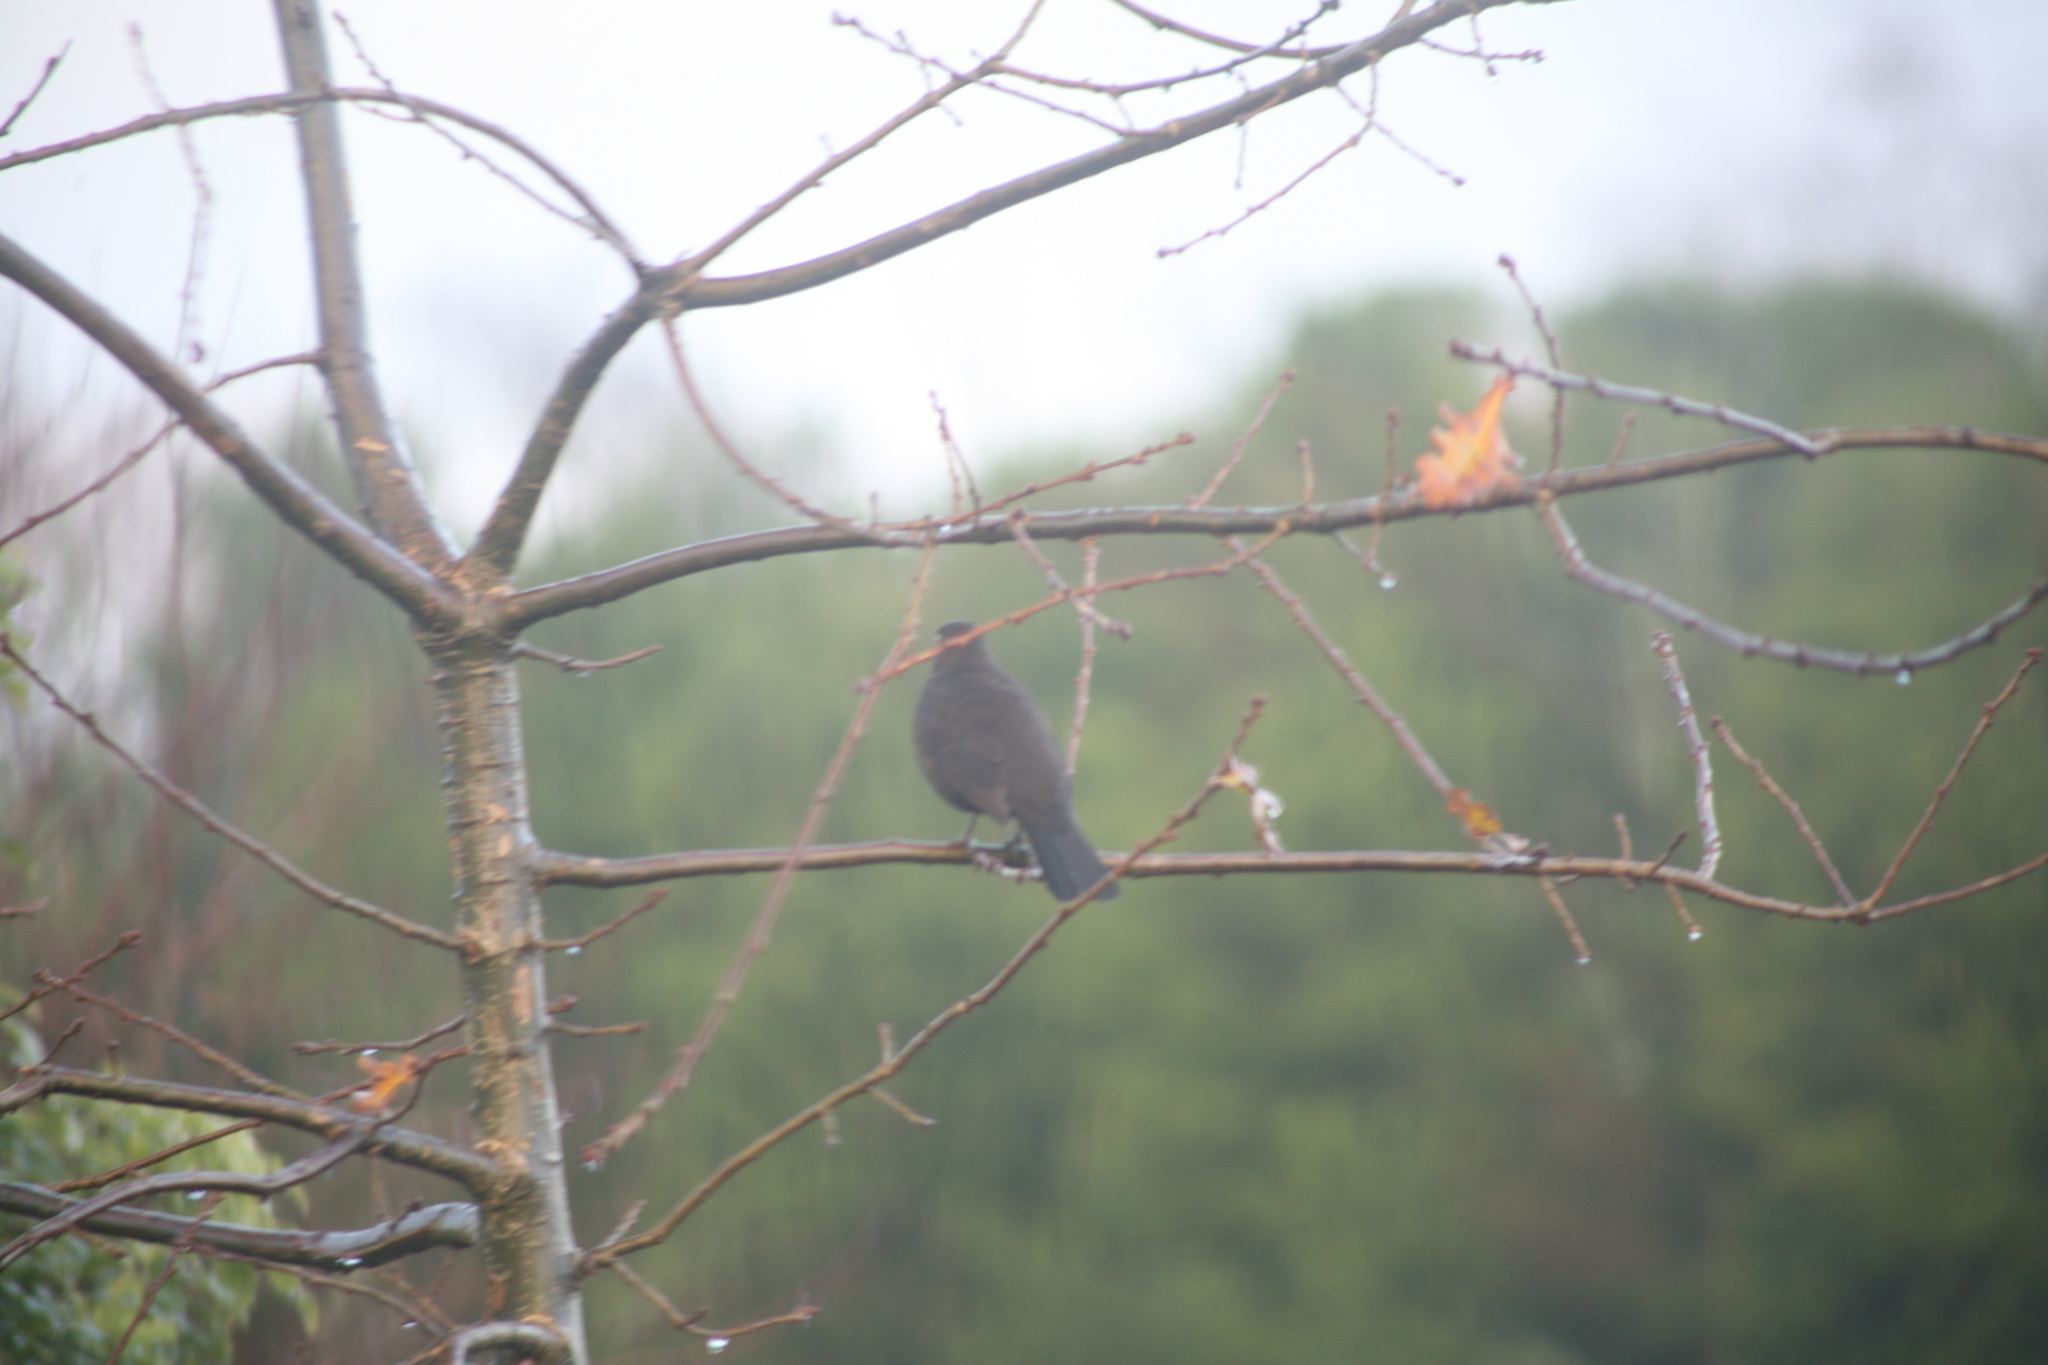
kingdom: Animalia
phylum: Chordata
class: Aves
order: Passeriformes
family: Turdidae
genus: Turdus
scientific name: Turdus merula
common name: Common blackbird
